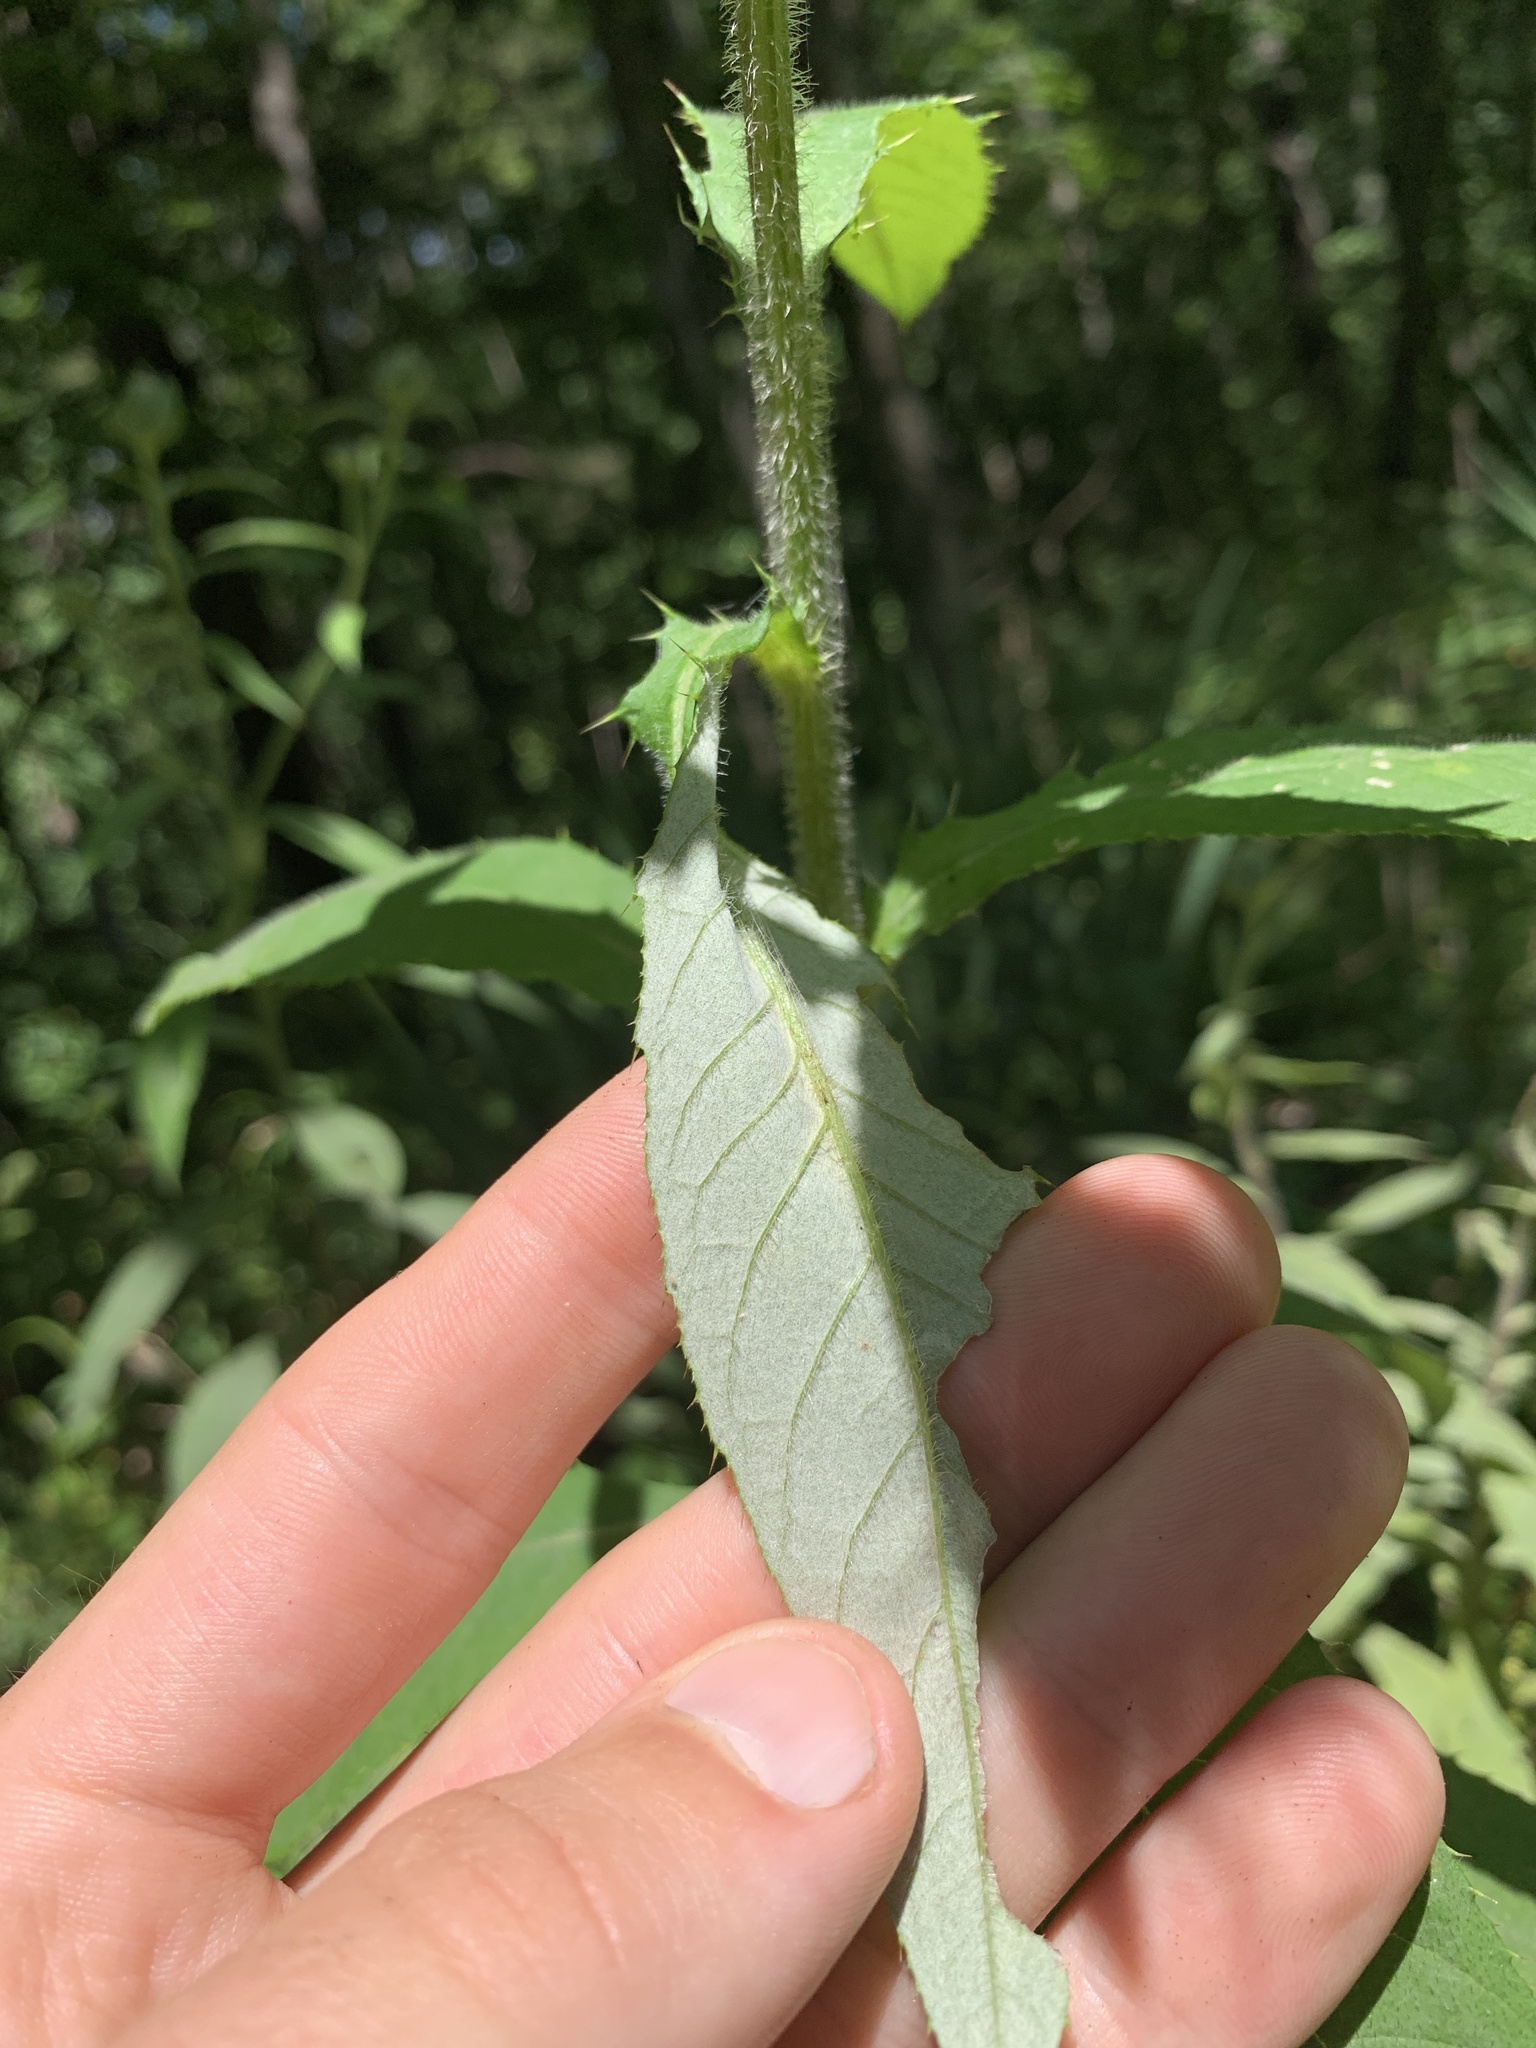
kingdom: Plantae
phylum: Tracheophyta
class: Magnoliopsida
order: Asterales
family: Asteraceae
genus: Cirsium
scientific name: Cirsium altissimum
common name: Roadside thistle
